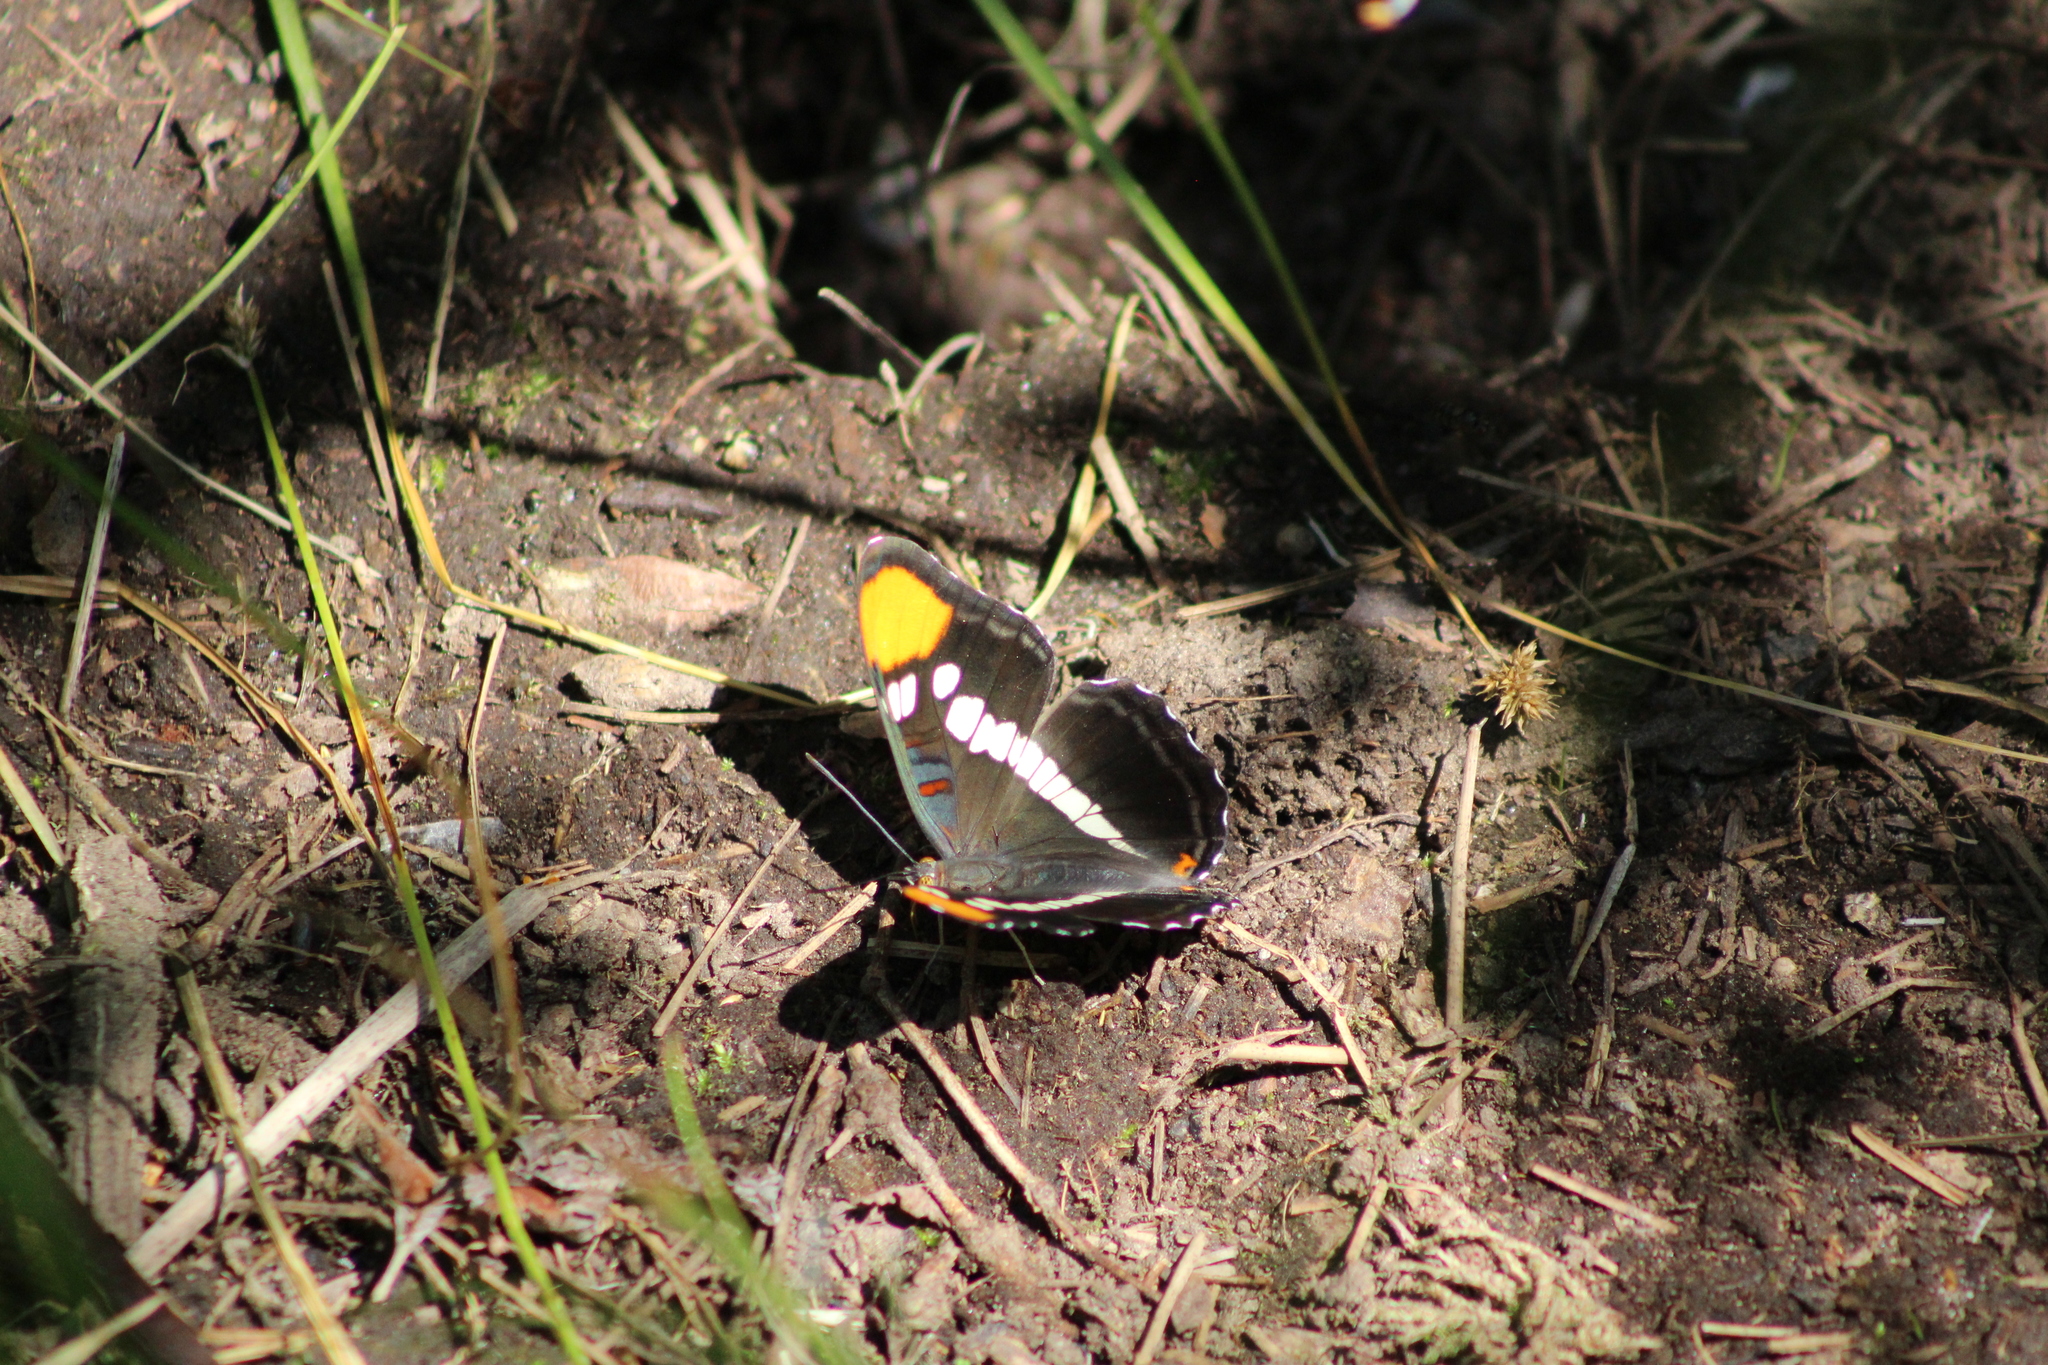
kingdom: Animalia
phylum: Arthropoda
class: Insecta
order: Lepidoptera
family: Nymphalidae
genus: Limenitis
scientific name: Limenitis bredowii
